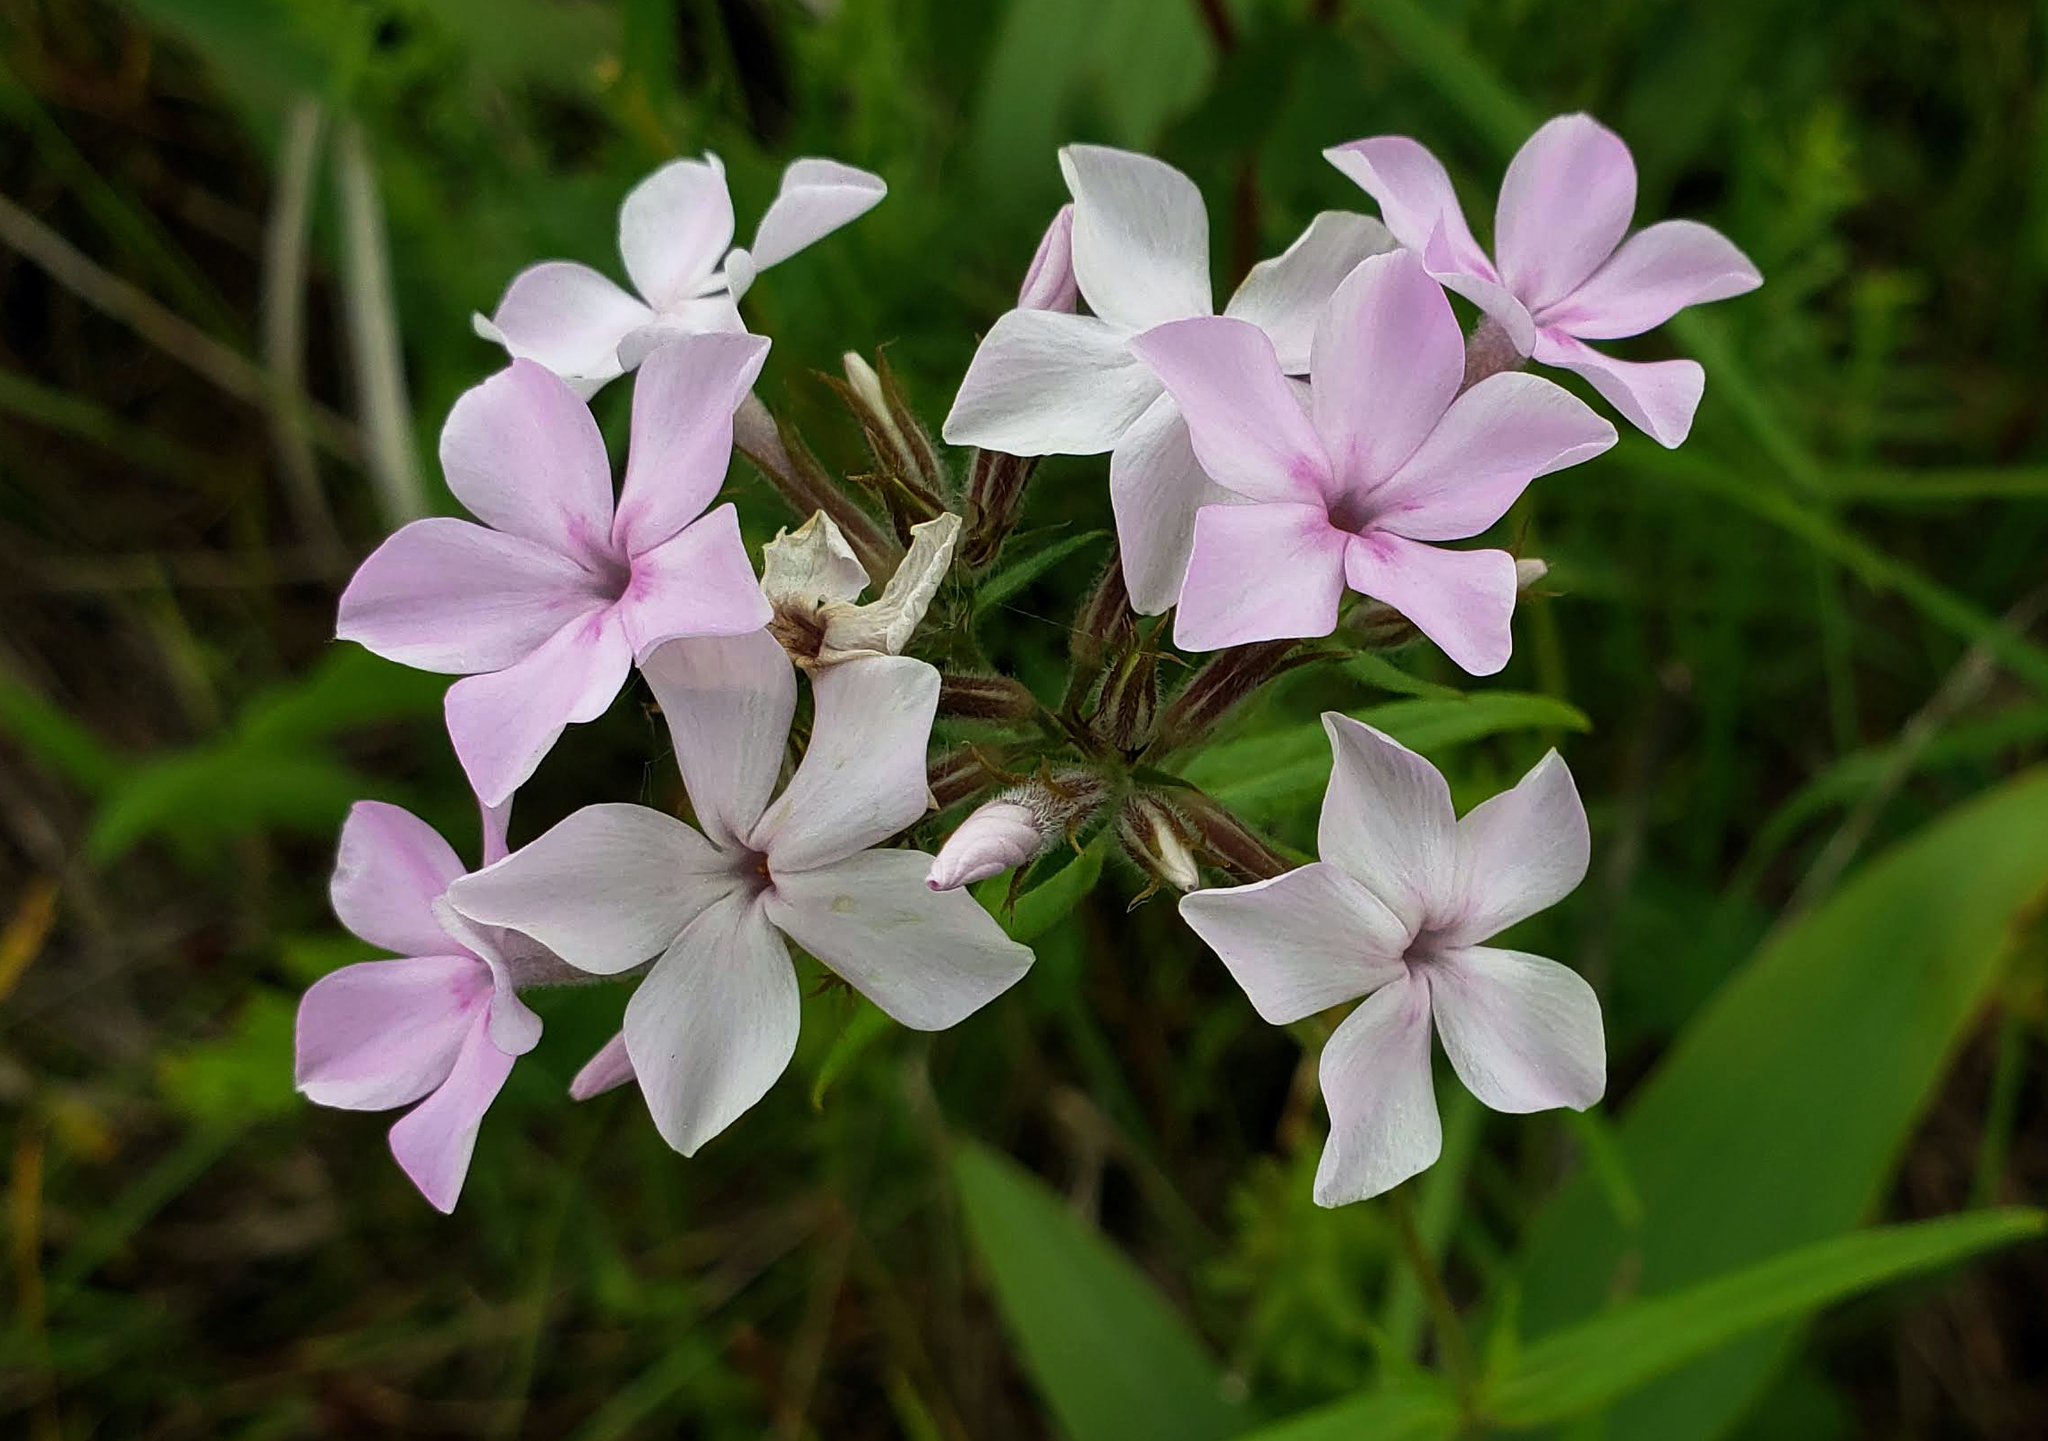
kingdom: Plantae
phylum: Tracheophyta
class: Magnoliopsida
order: Ericales
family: Polemoniaceae
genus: Phlox
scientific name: Phlox pilosa
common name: Prairie phlox
